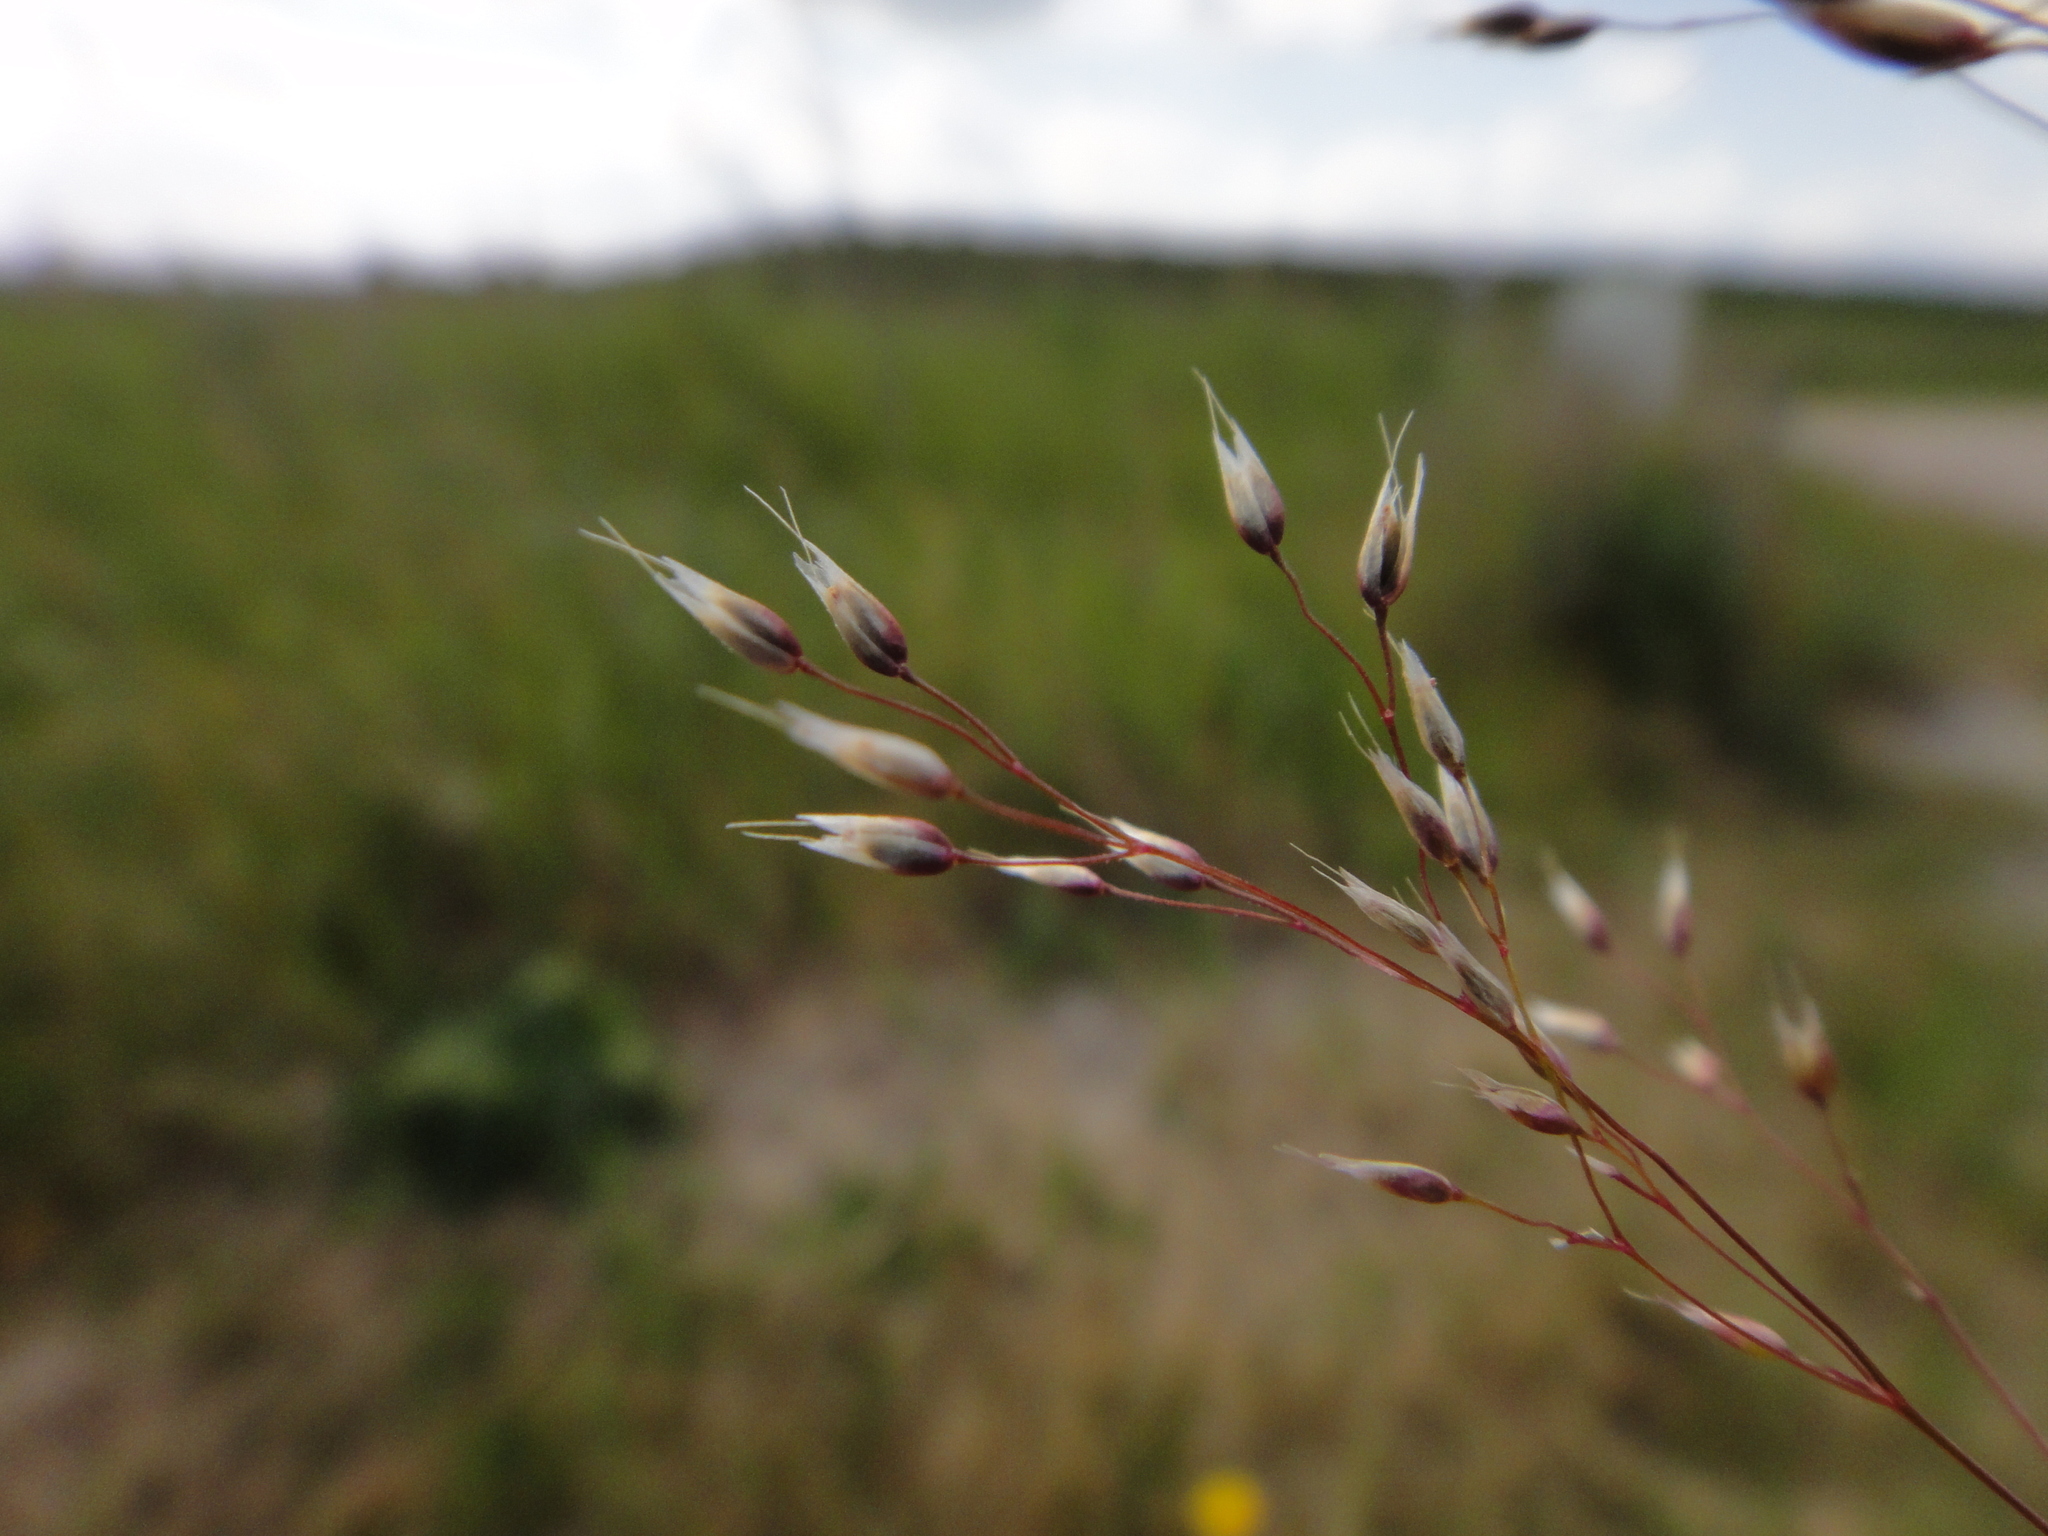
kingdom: Plantae
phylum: Tracheophyta
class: Liliopsida
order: Poales
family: Poaceae
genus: Aira
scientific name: Aira caryophyllea
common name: Silver hairgrass
